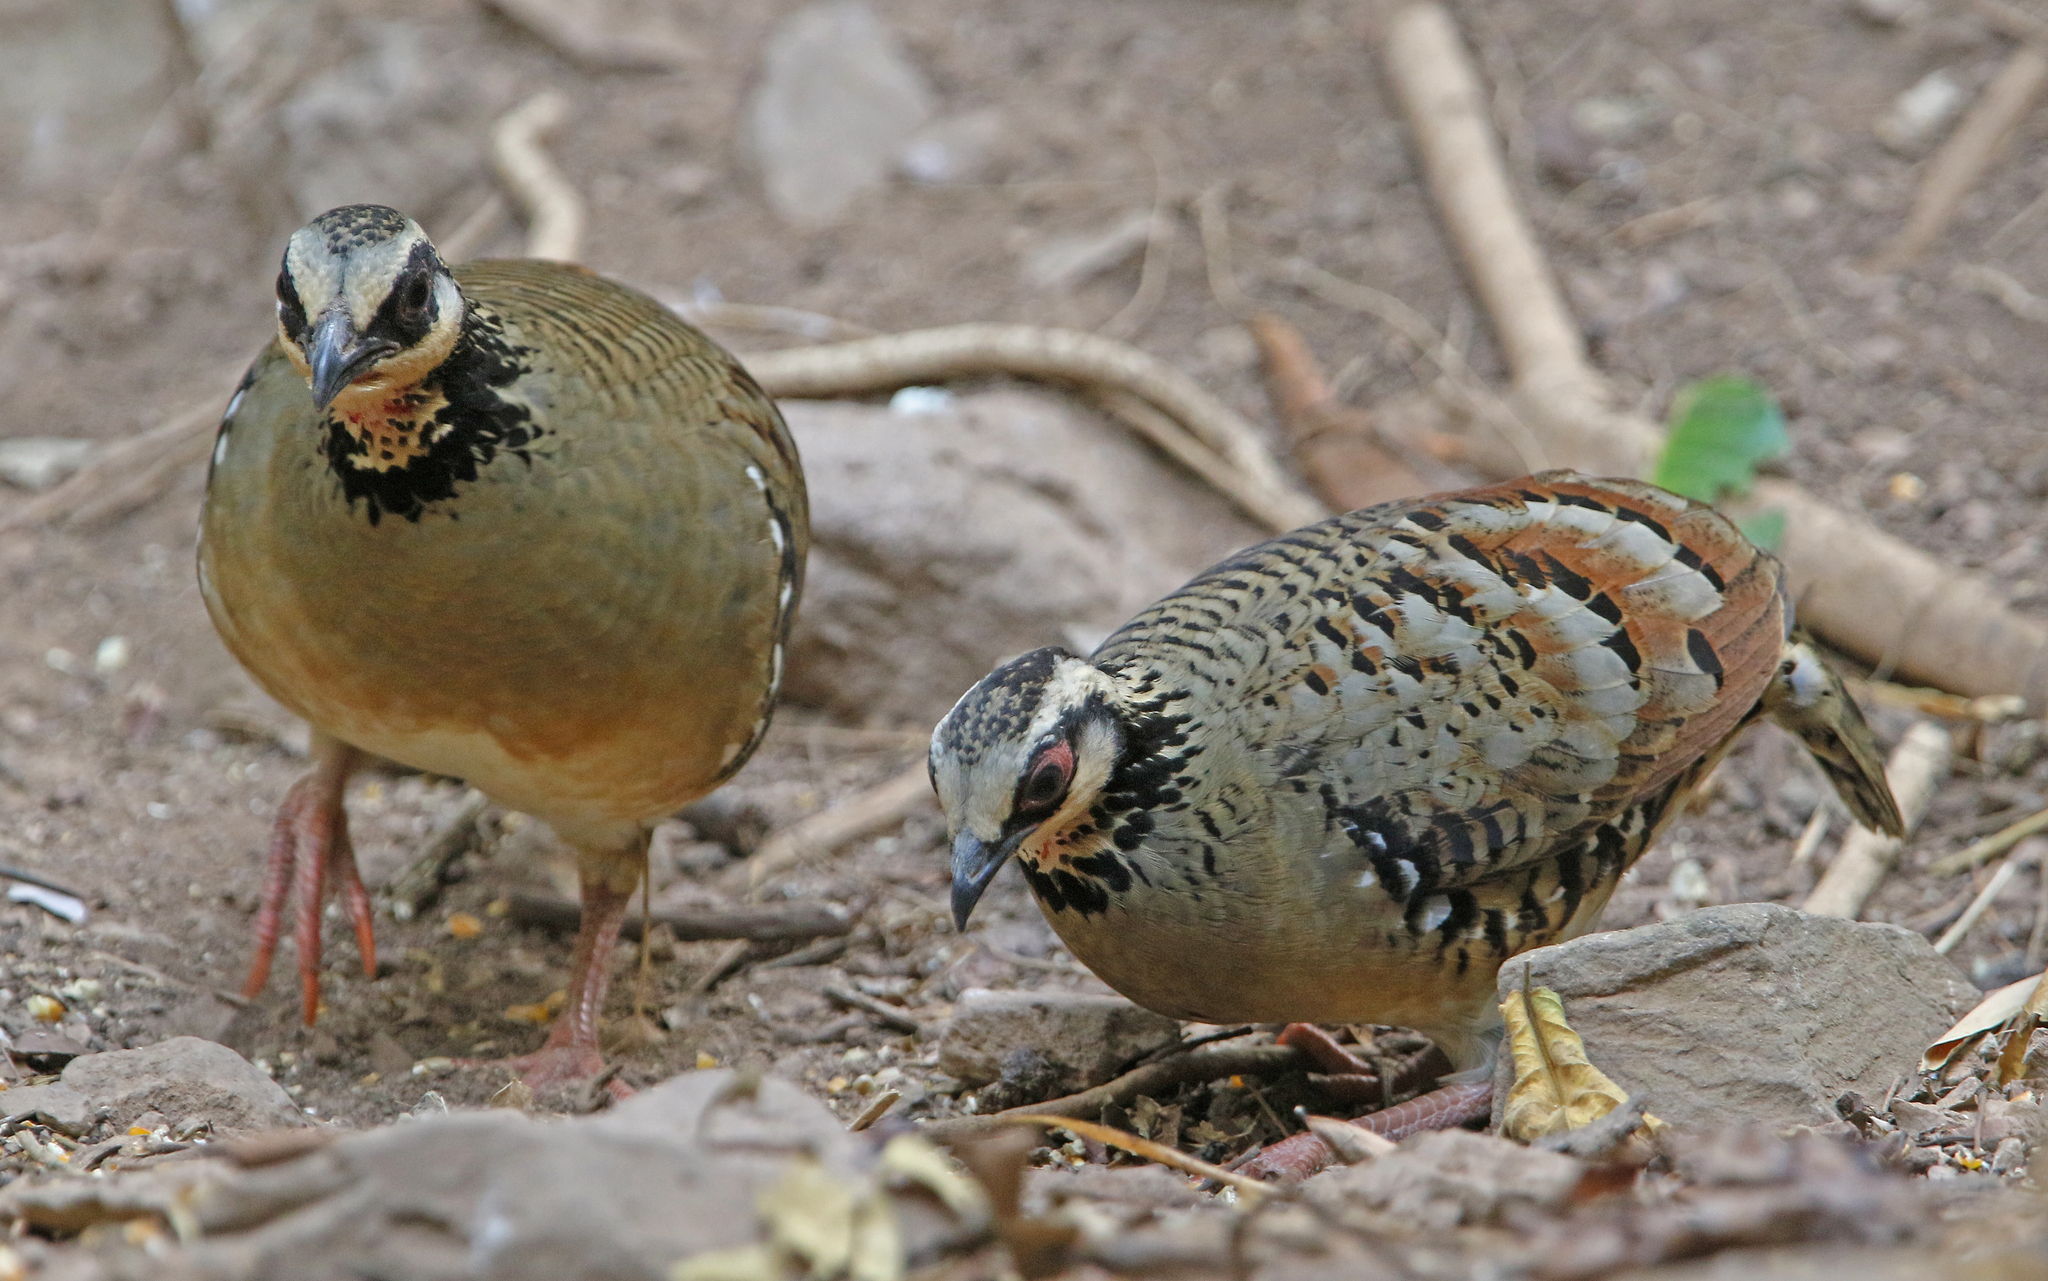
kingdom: Animalia
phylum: Chordata
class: Aves
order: Galliformes
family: Phasianidae
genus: Arborophila
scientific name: Arborophila brunneopectus
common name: Bar-backed partridge
